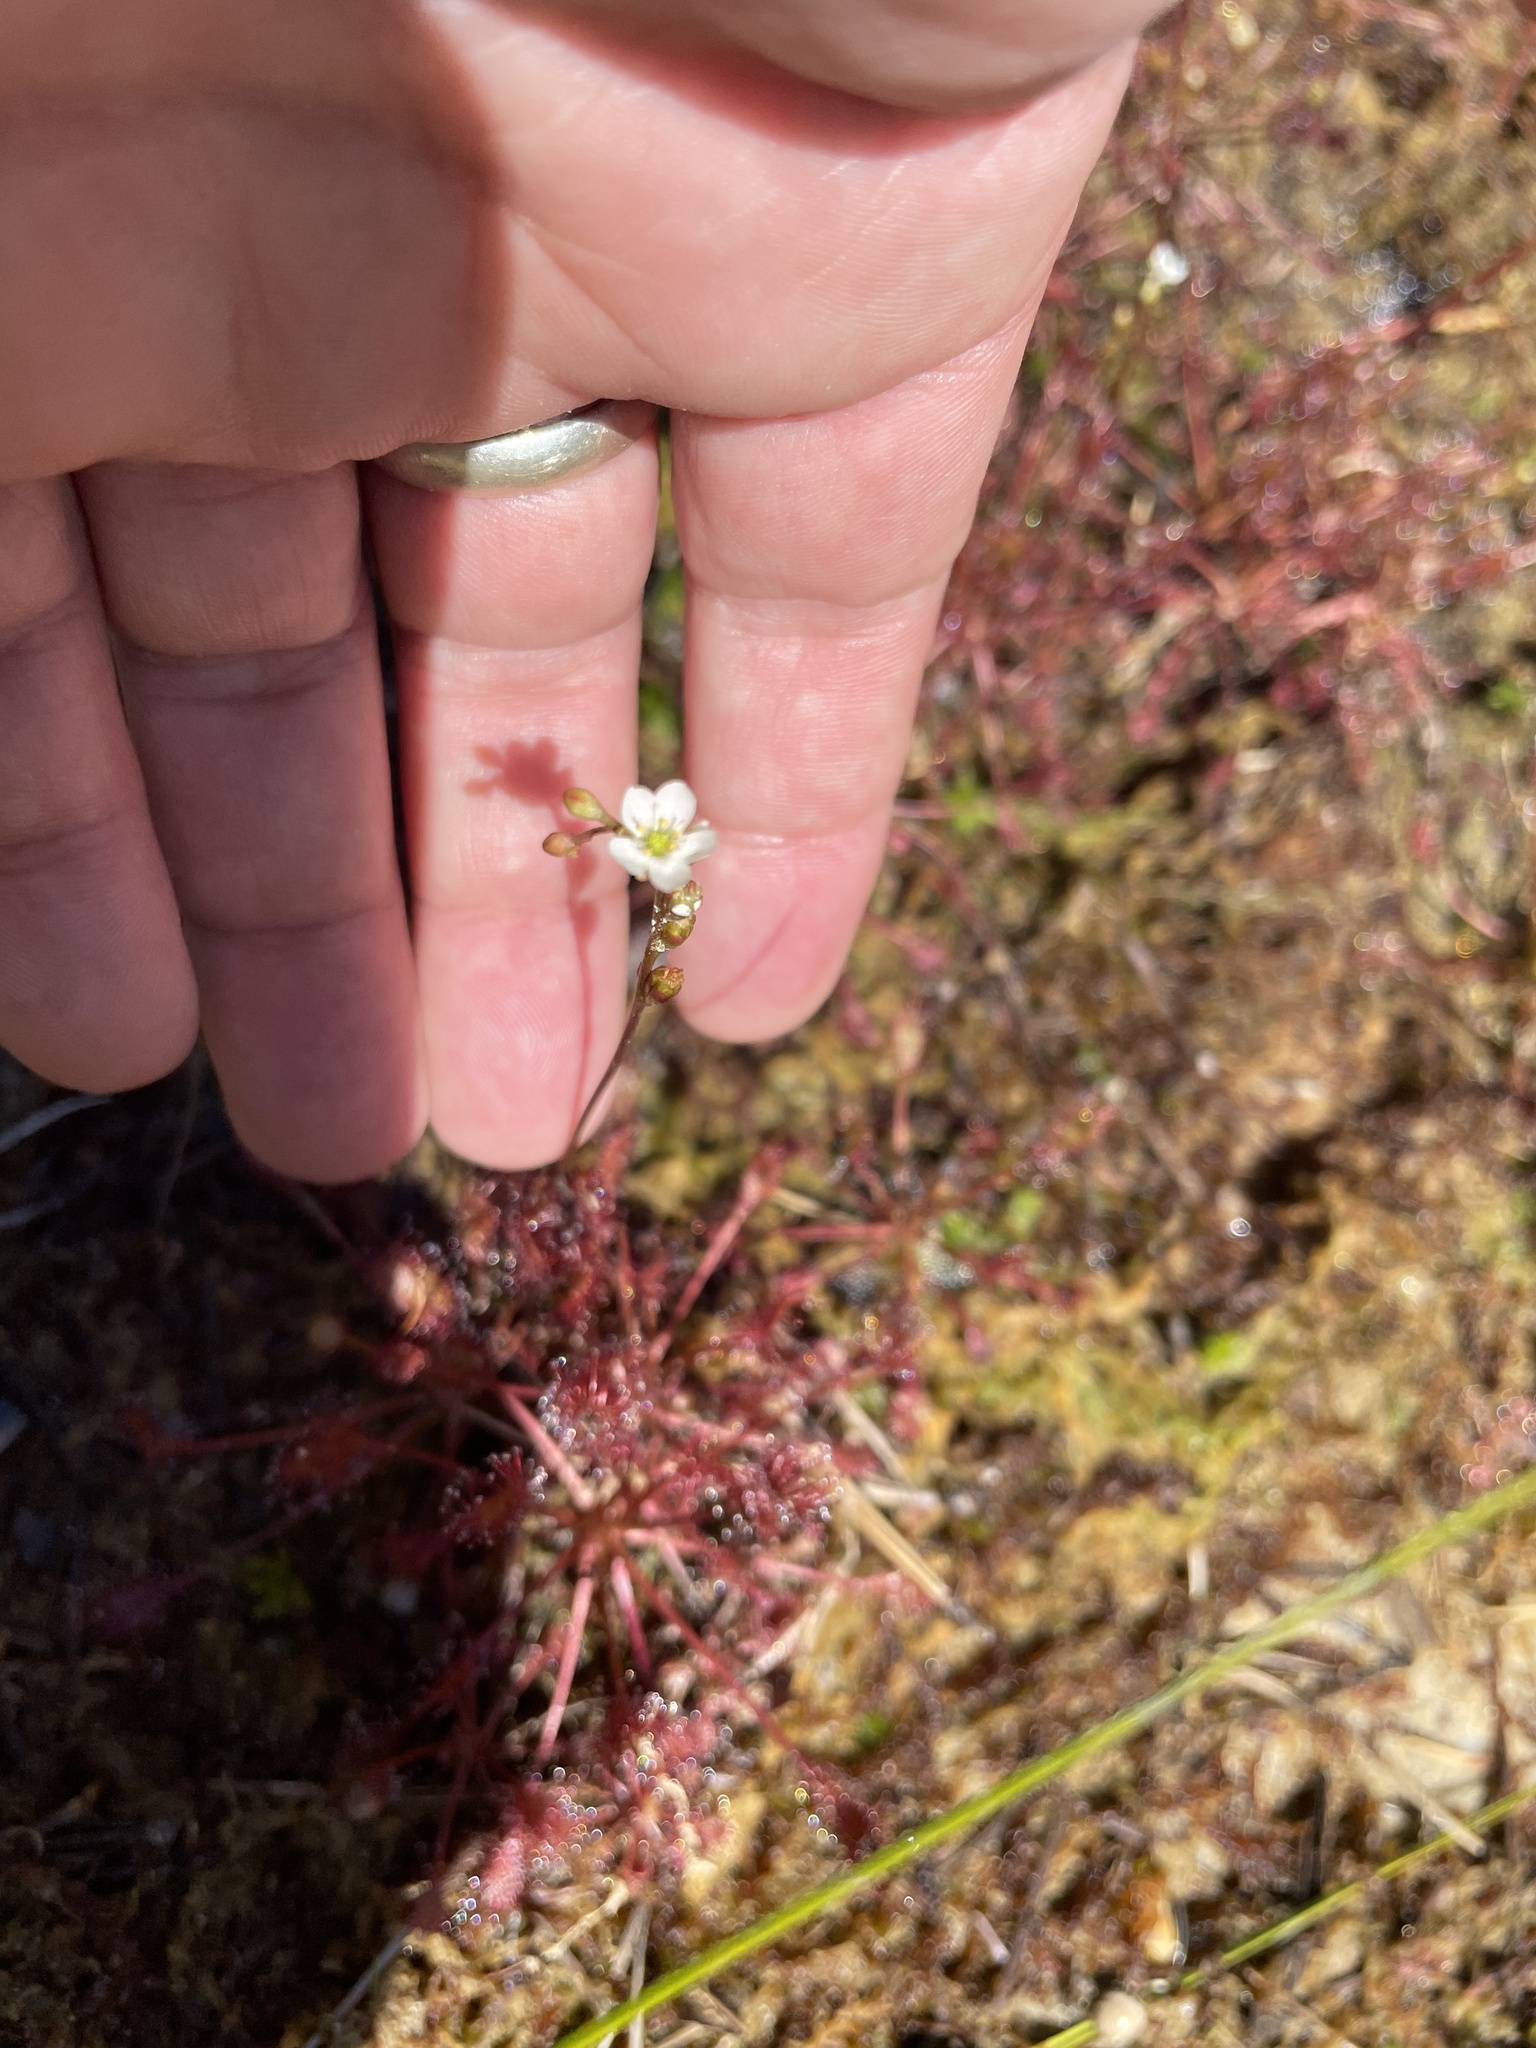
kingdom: Plantae
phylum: Tracheophyta
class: Magnoliopsida
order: Caryophyllales
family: Droseraceae
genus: Drosera
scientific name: Drosera intermedia
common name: Oblong-leaved sundew
